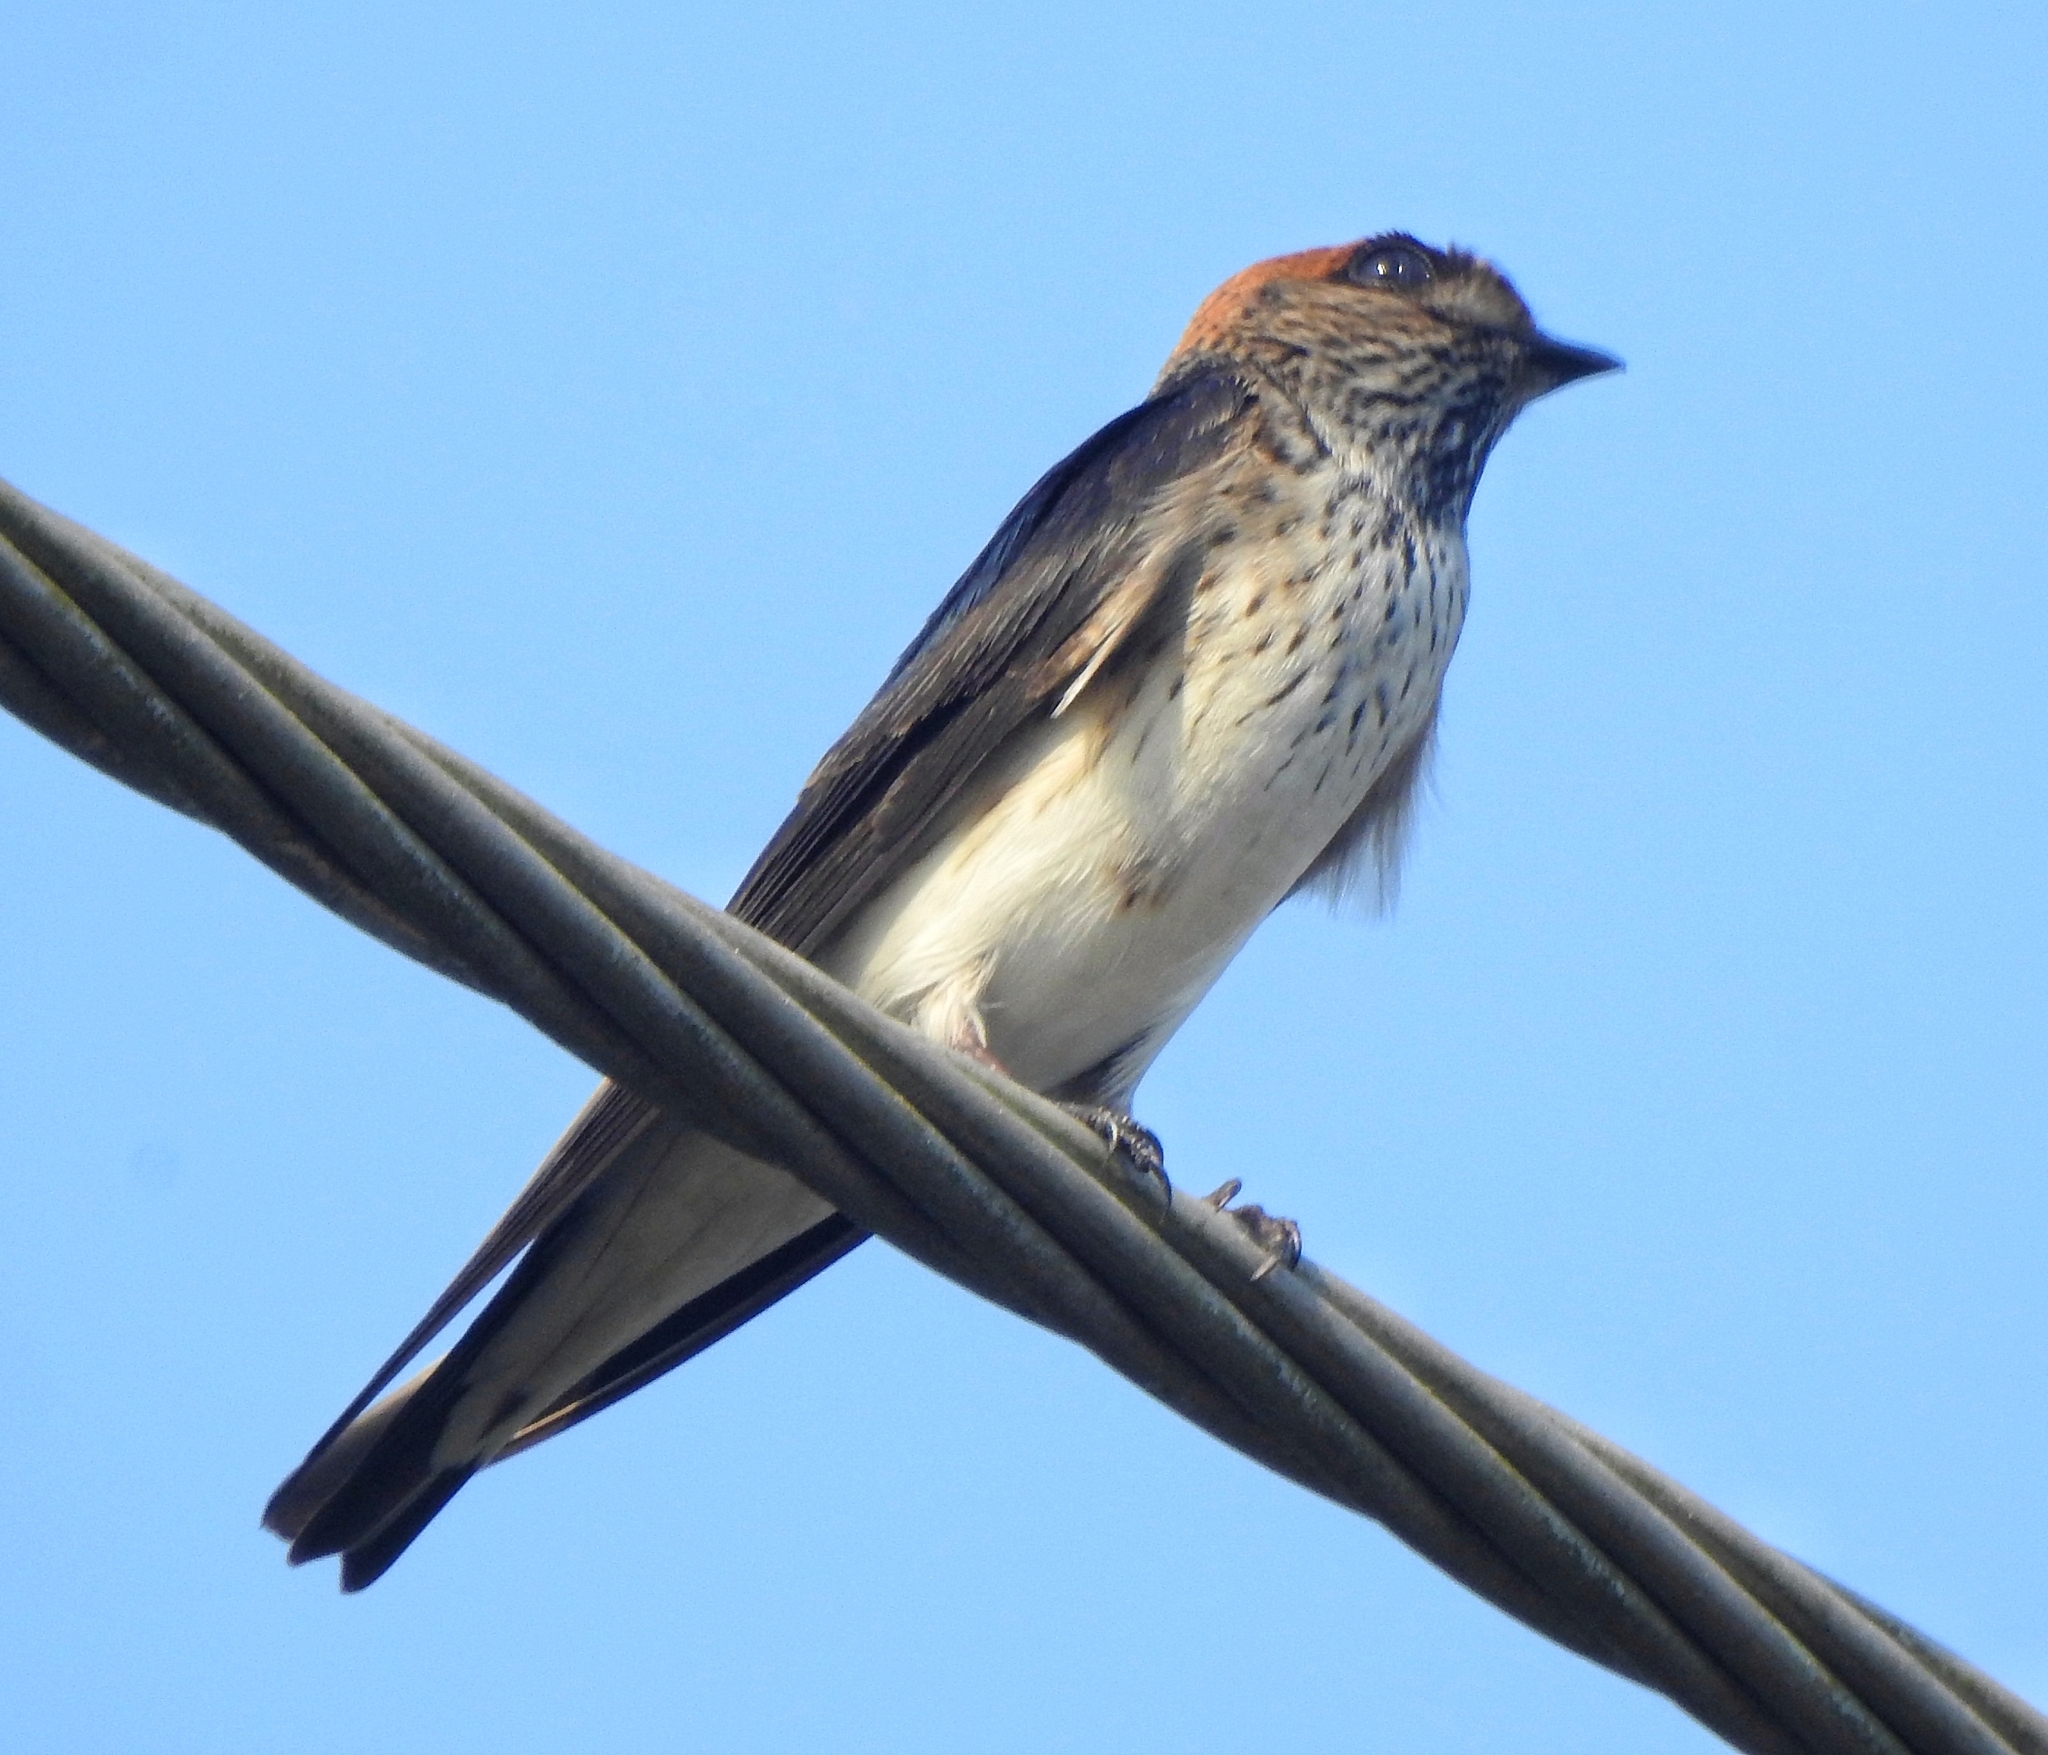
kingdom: Animalia
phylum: Chordata
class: Aves
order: Passeriformes
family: Hirundinidae
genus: Petrochelidon
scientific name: Petrochelidon fluvicola
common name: Streak-throated swallow
